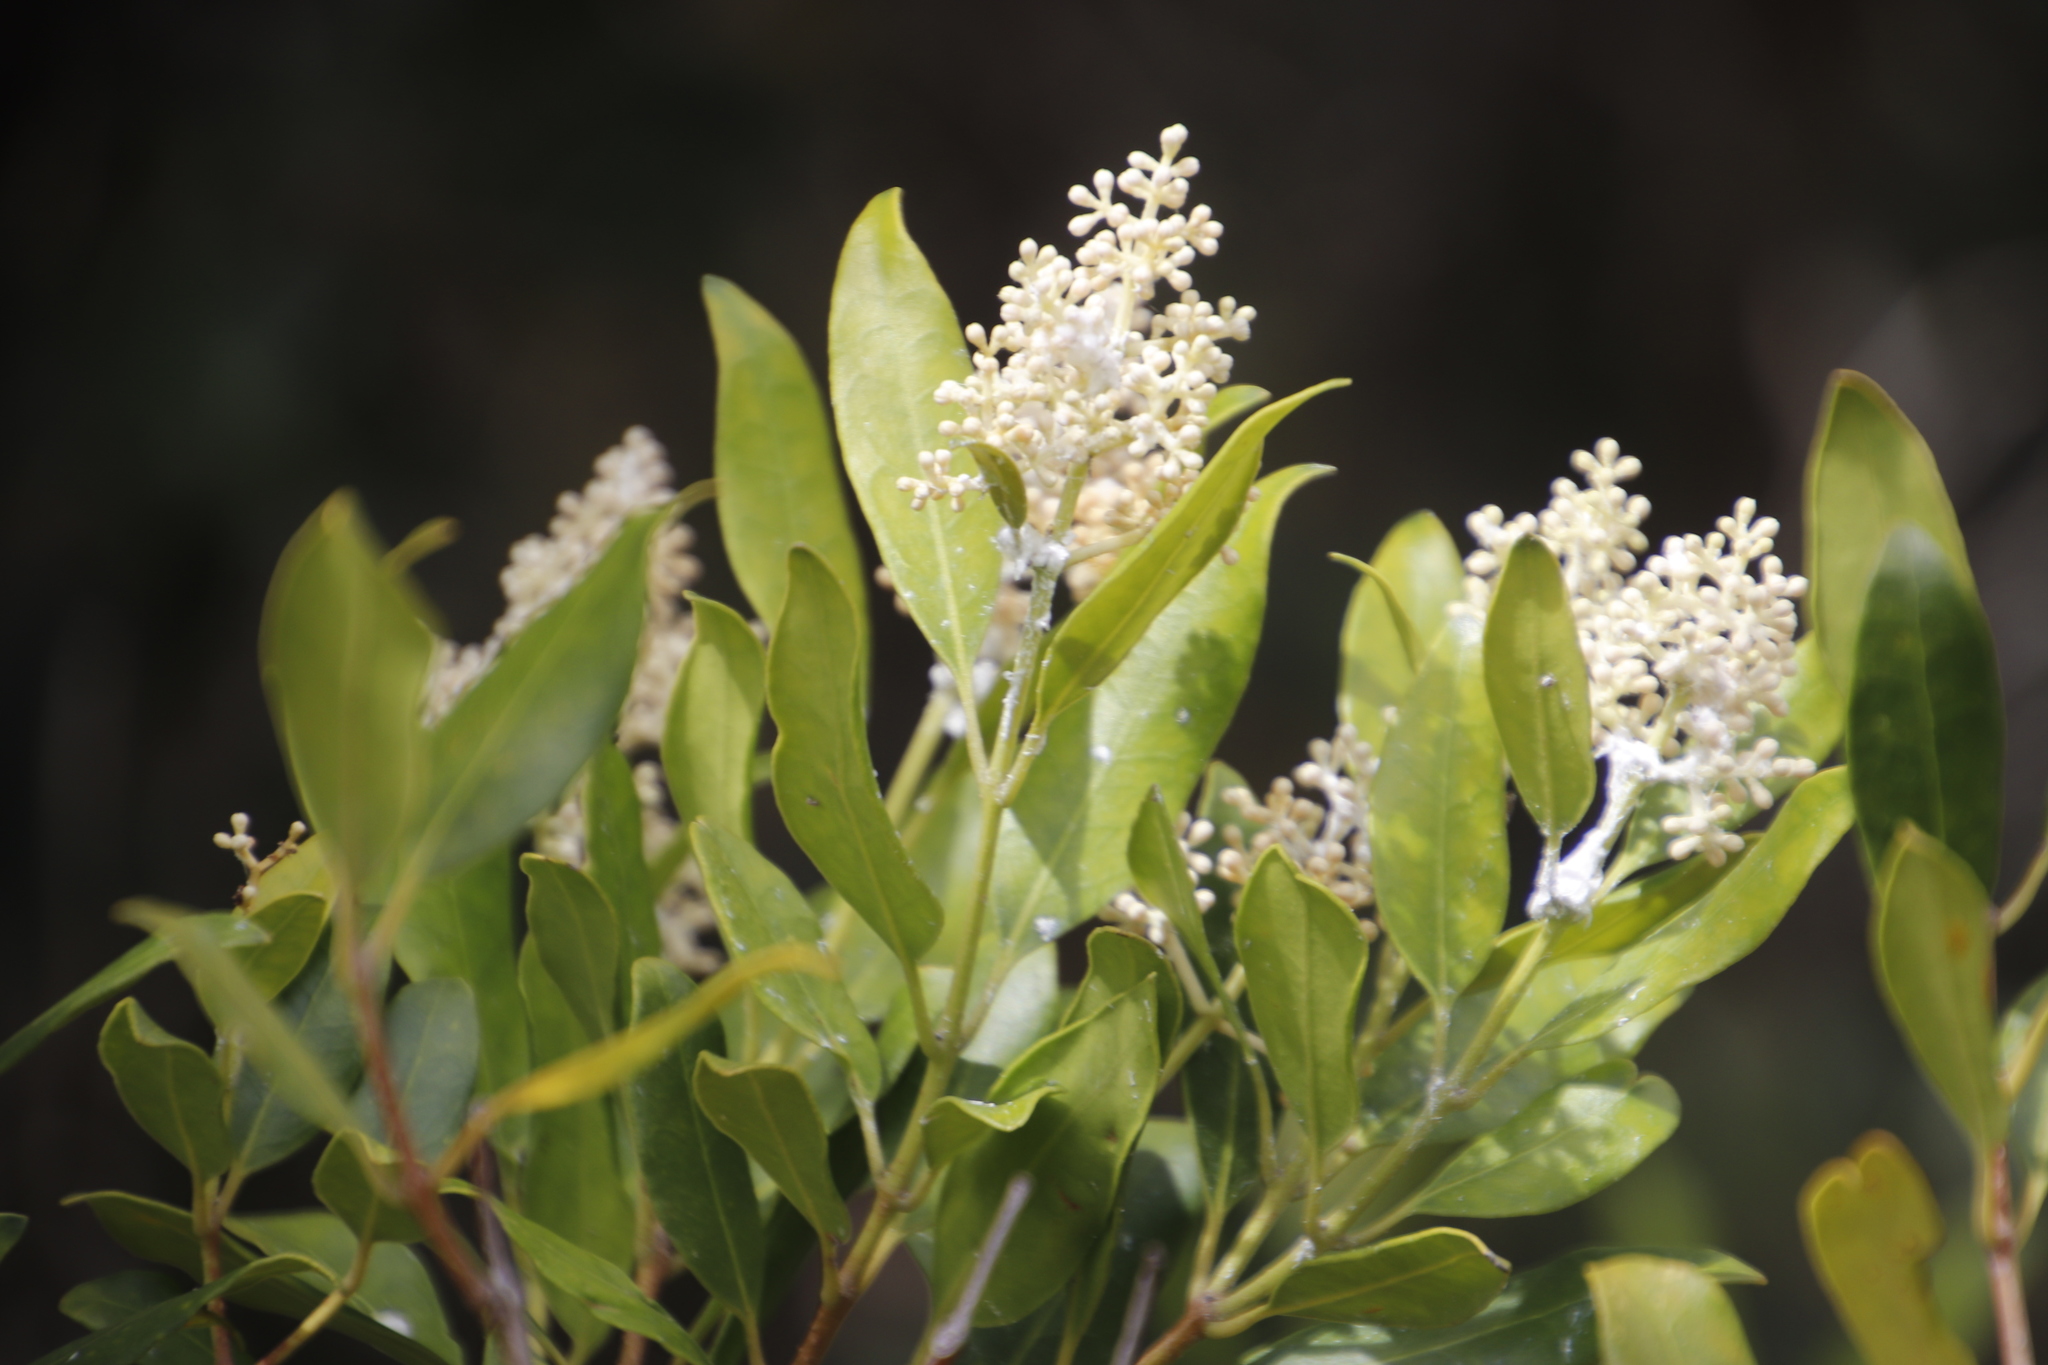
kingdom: Plantae
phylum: Tracheophyta
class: Magnoliopsida
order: Lamiales
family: Oleaceae
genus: Olea
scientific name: Olea capensis
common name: Black ironwood
